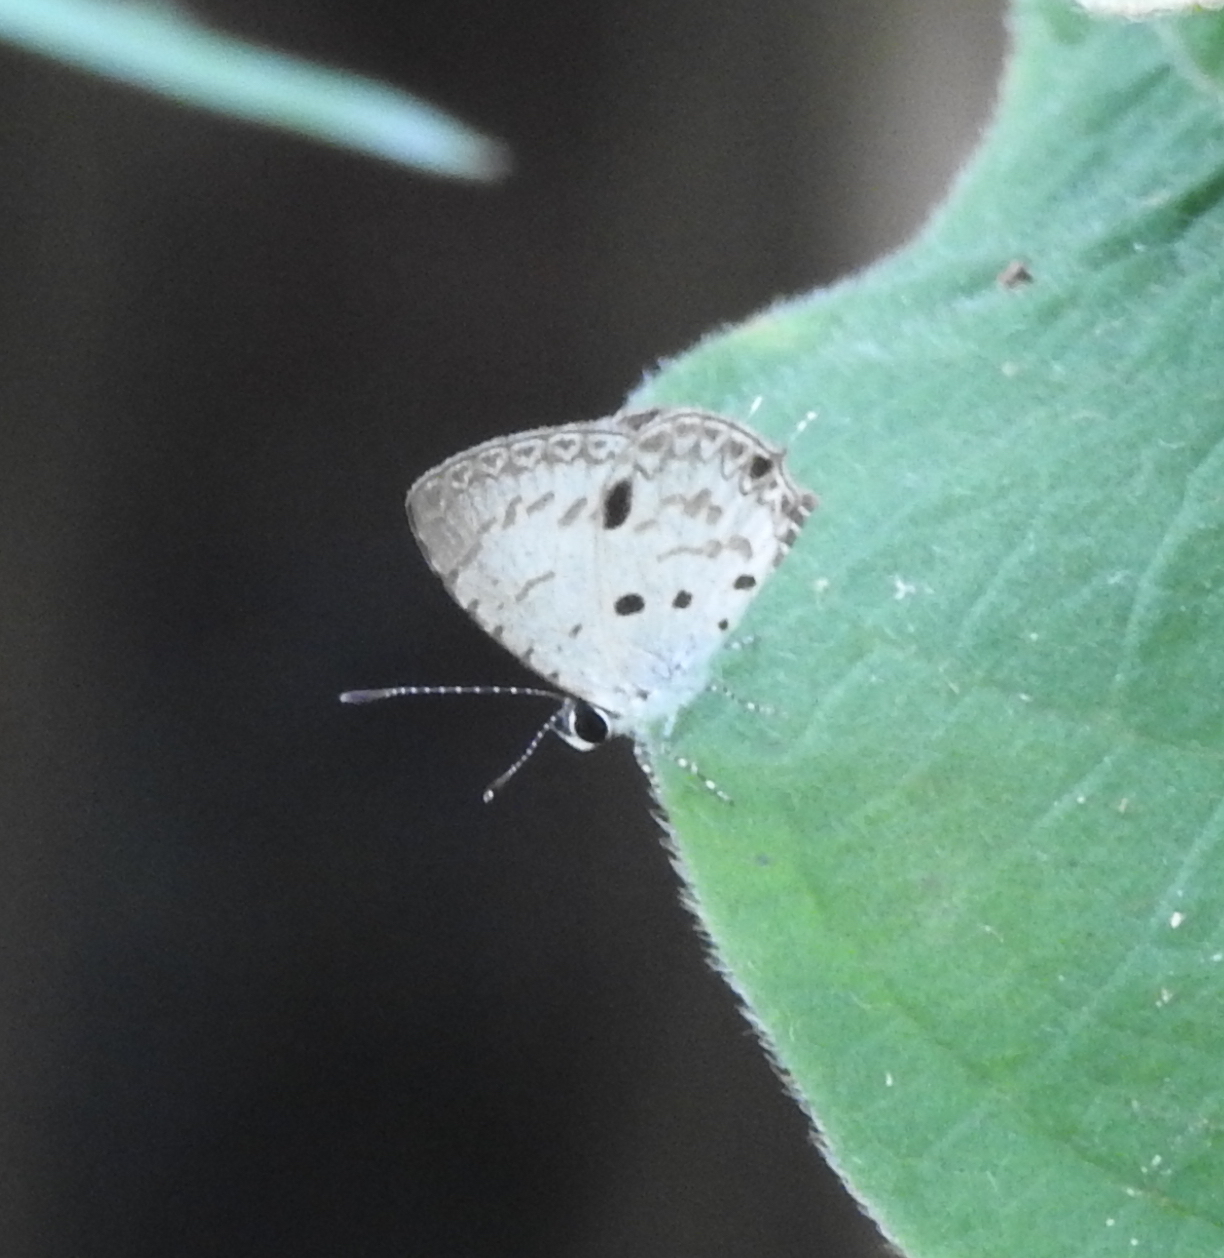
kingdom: Animalia
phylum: Arthropoda
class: Insecta
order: Lepidoptera
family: Lycaenidae
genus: Megisba
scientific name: Megisba malaya
